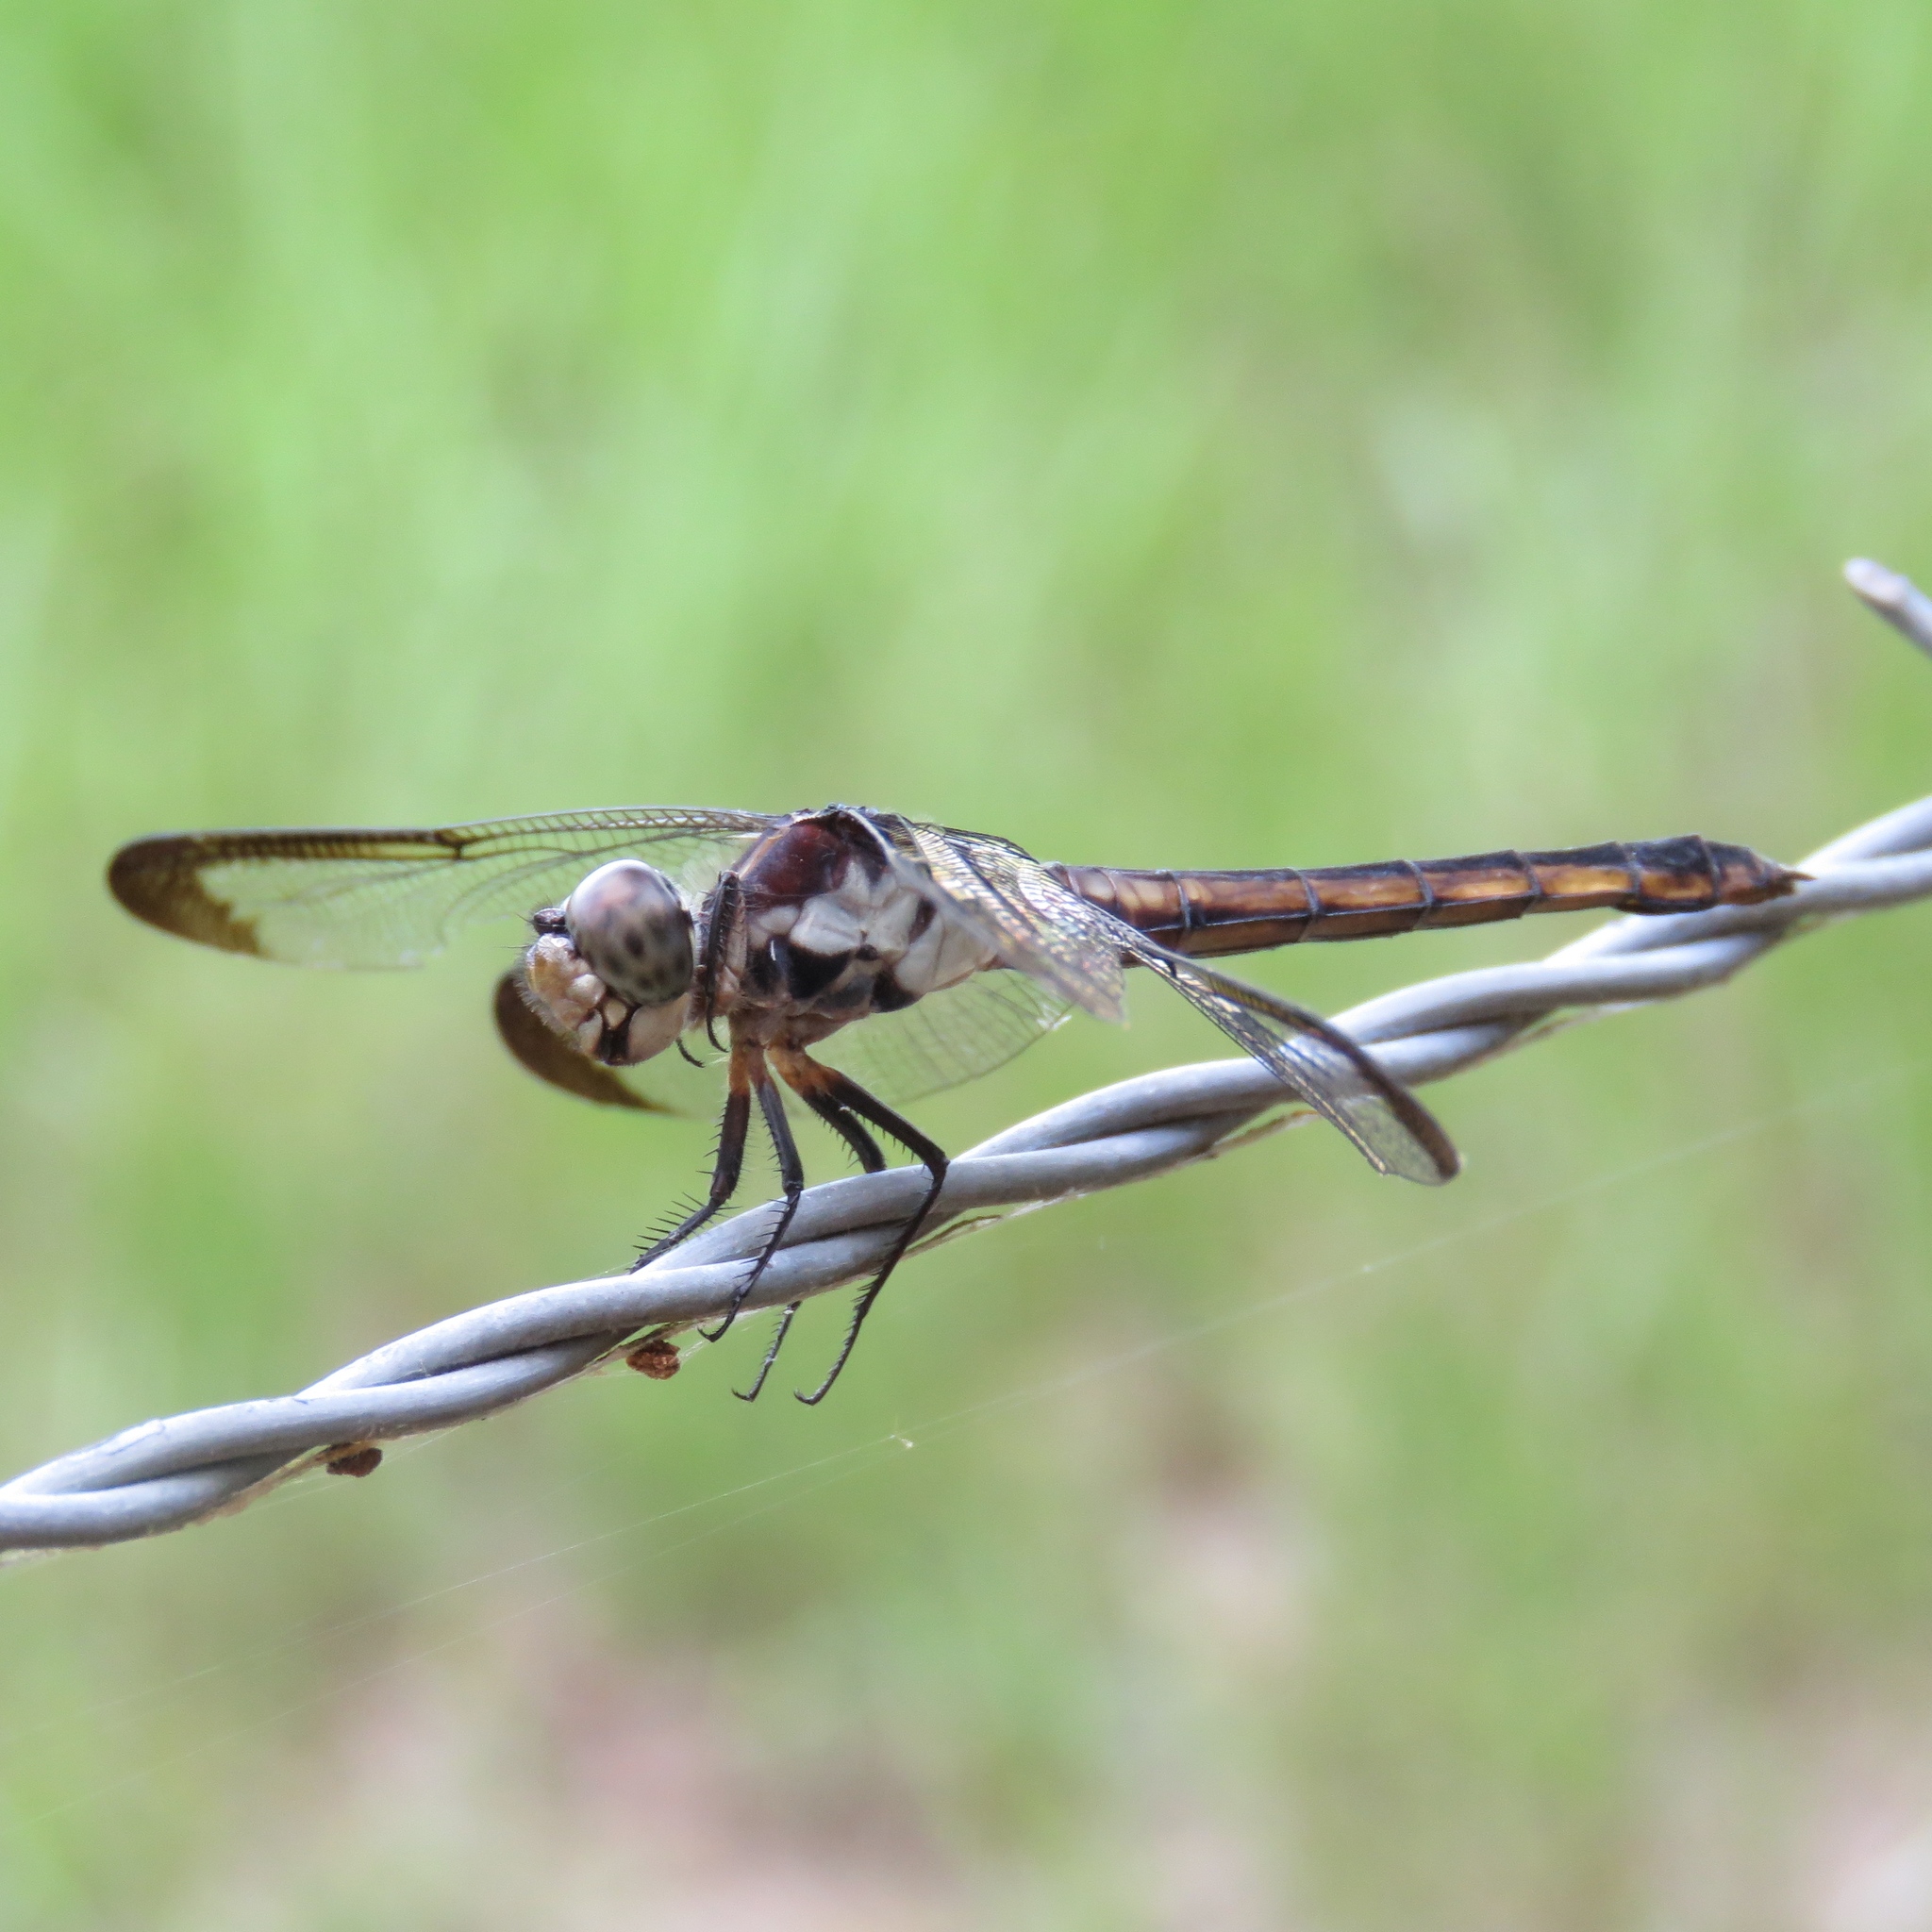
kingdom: Animalia
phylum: Arthropoda
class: Insecta
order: Odonata
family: Libellulidae
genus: Libellula
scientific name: Libellula incesta
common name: Slaty skimmer
